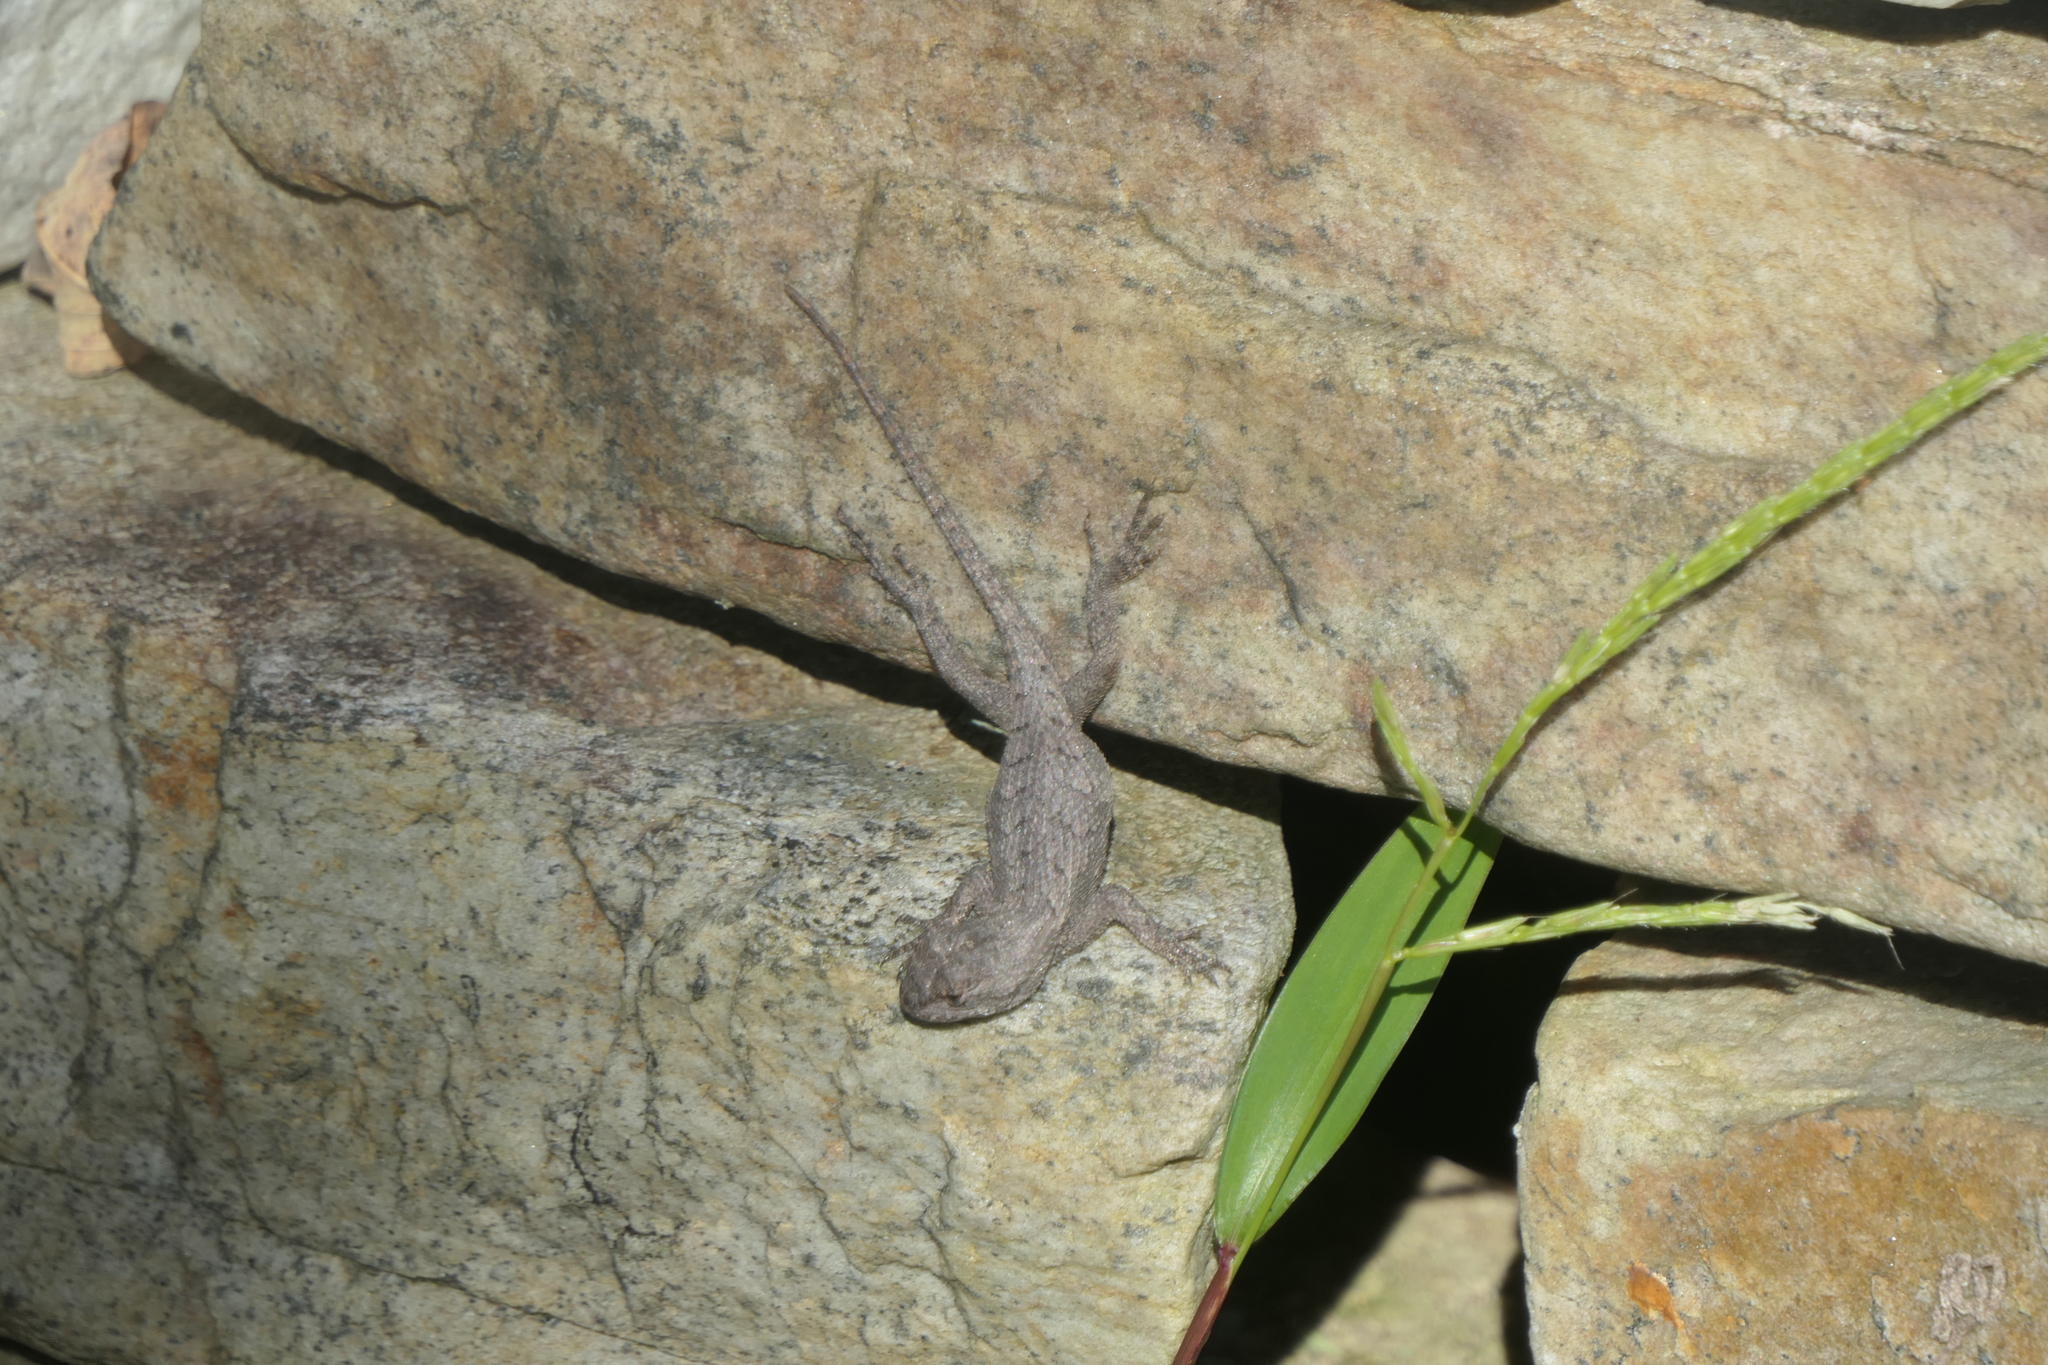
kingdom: Animalia
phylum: Chordata
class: Squamata
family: Phrynosomatidae
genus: Sceloporus
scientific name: Sceloporus undulatus
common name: Eastern fence lizard
